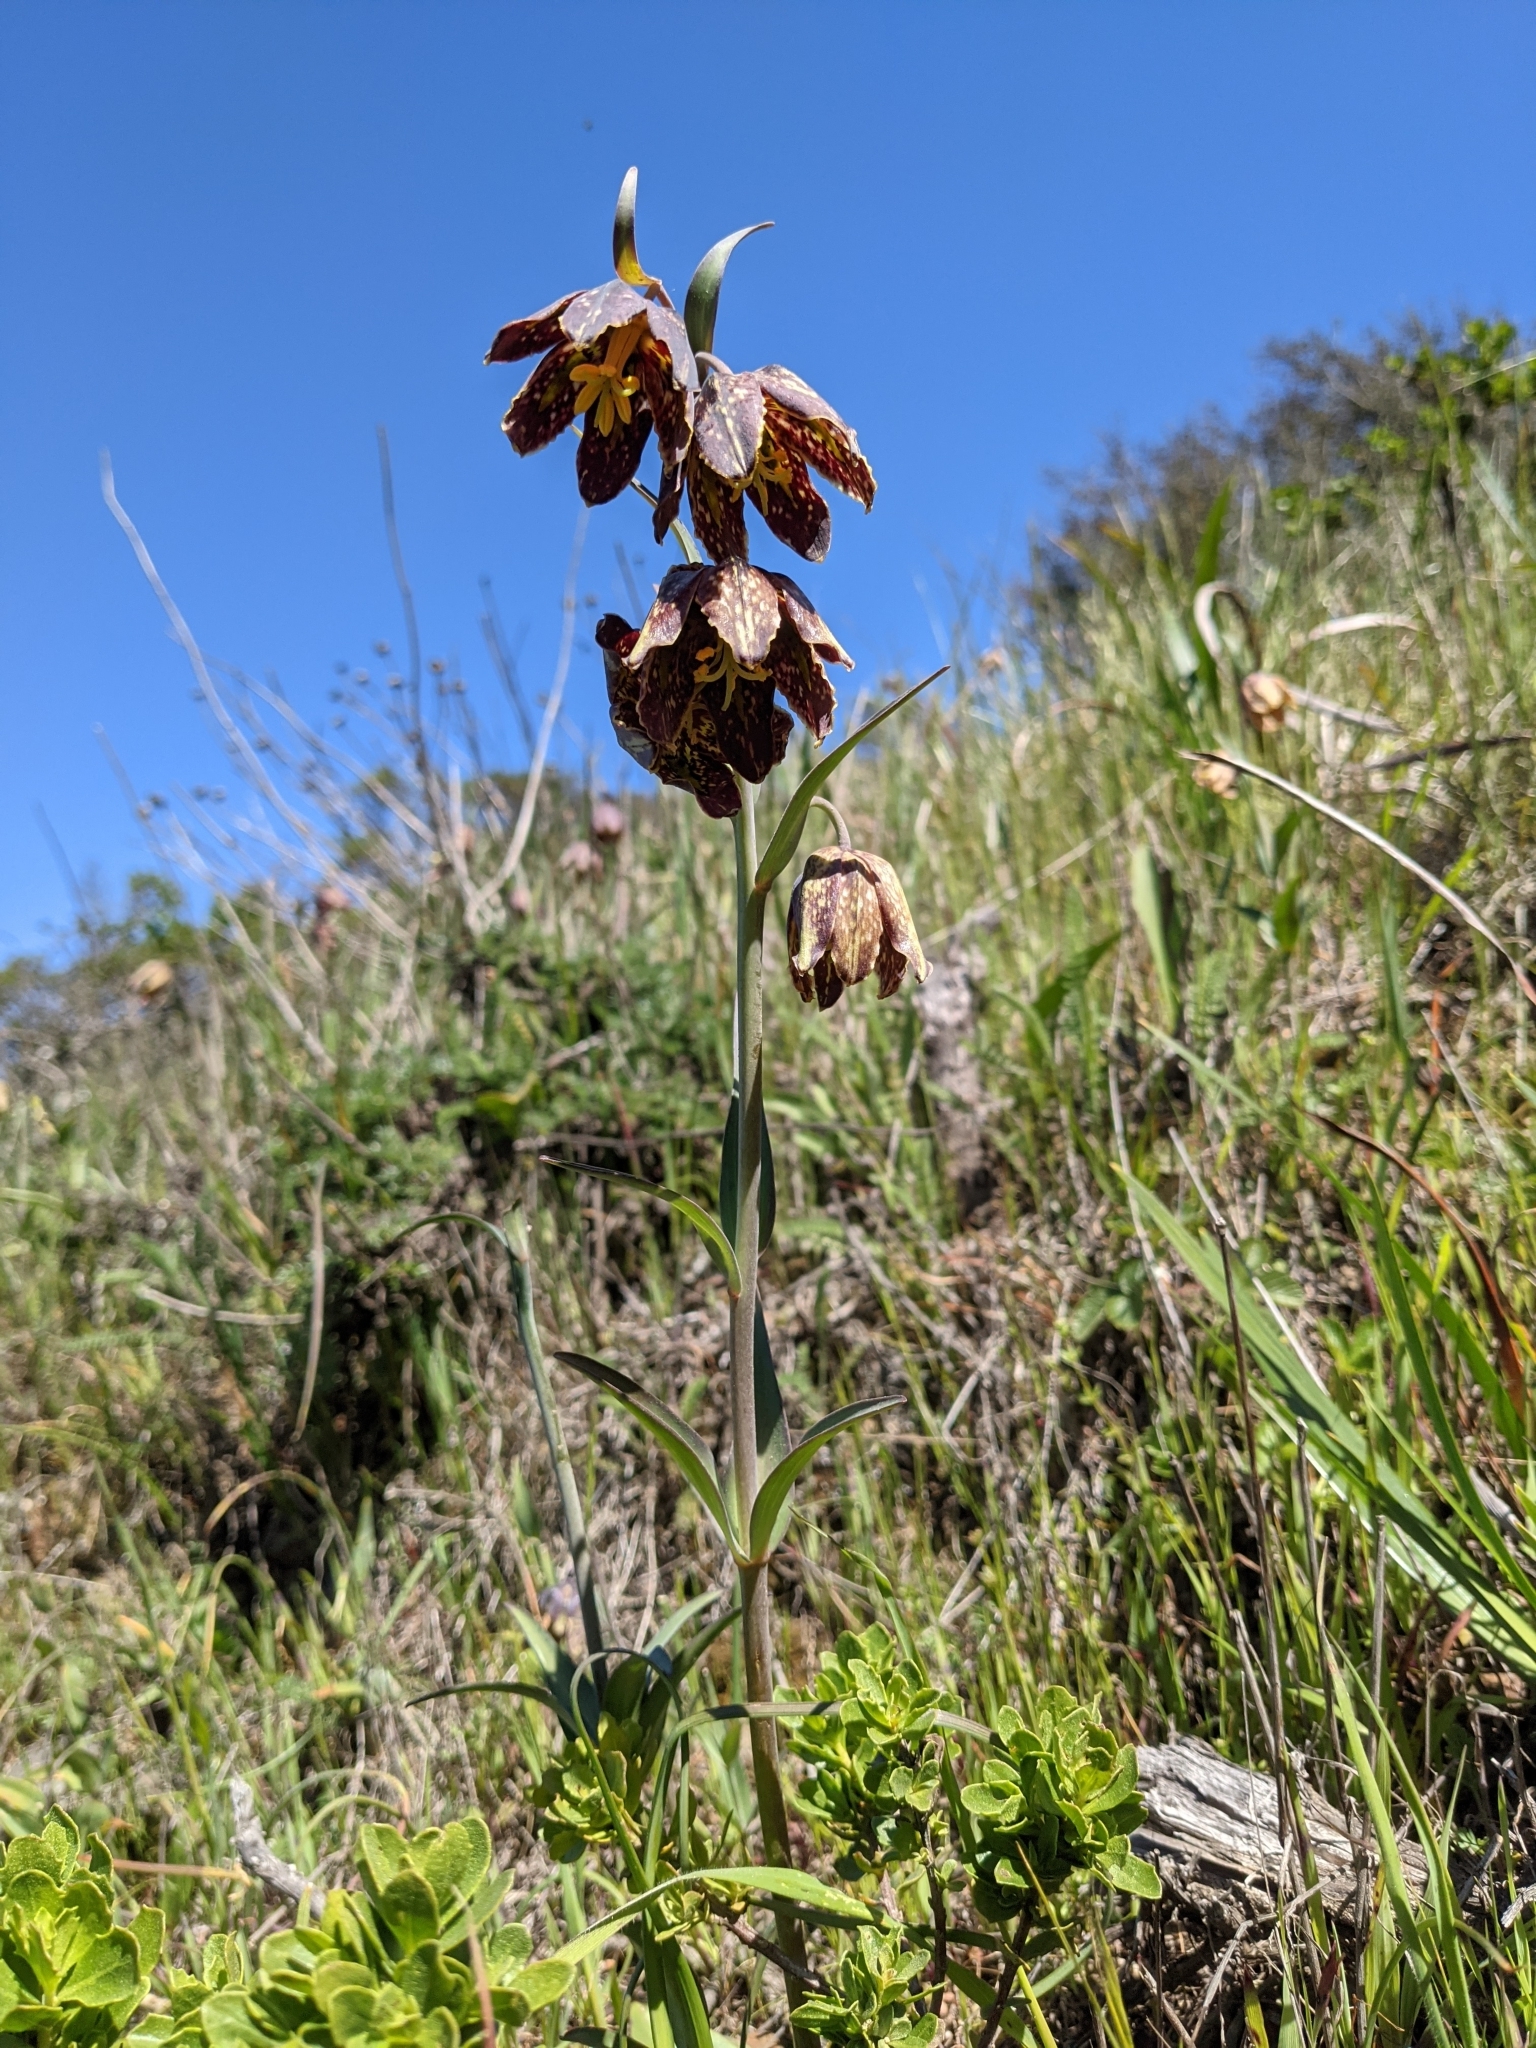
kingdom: Plantae
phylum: Tracheophyta
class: Liliopsida
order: Liliales
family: Liliaceae
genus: Fritillaria
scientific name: Fritillaria affinis
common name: Ojai fritillary
